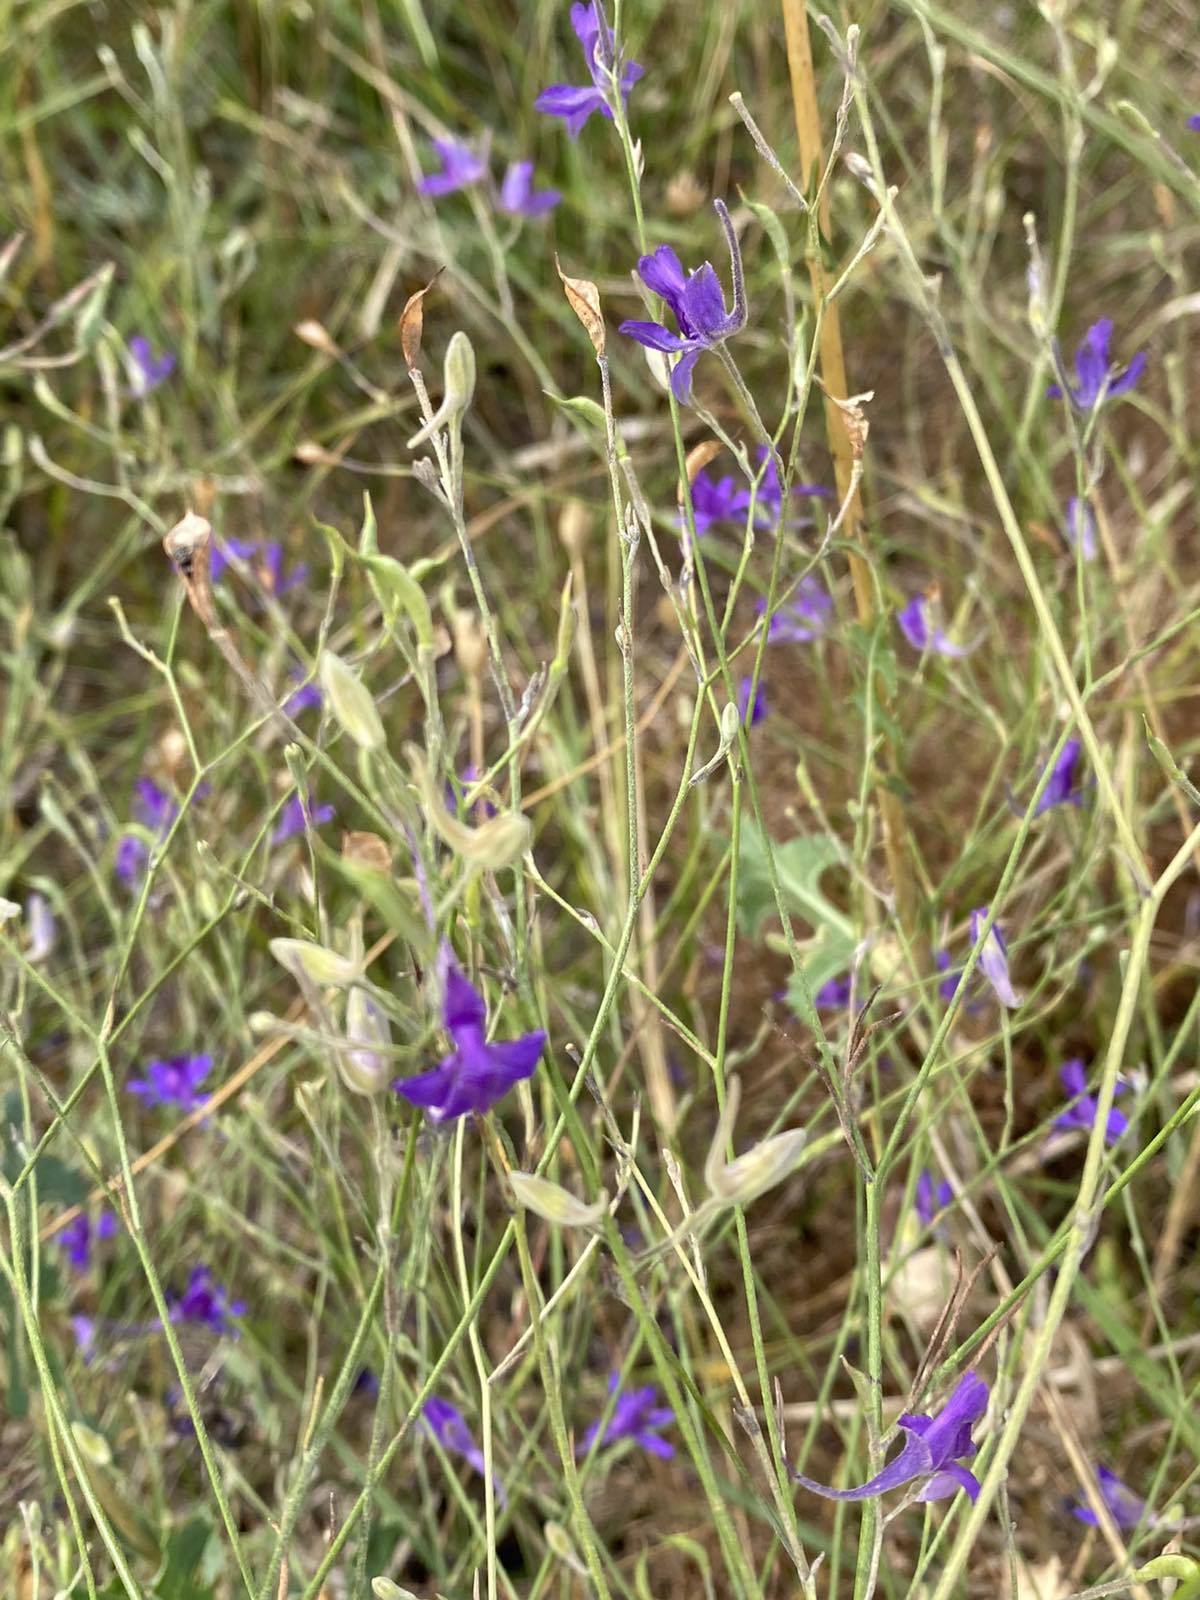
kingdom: Plantae
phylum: Tracheophyta
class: Magnoliopsida
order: Ranunculales
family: Ranunculaceae
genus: Delphinium
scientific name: Delphinium consolida
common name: Branching larkspur
